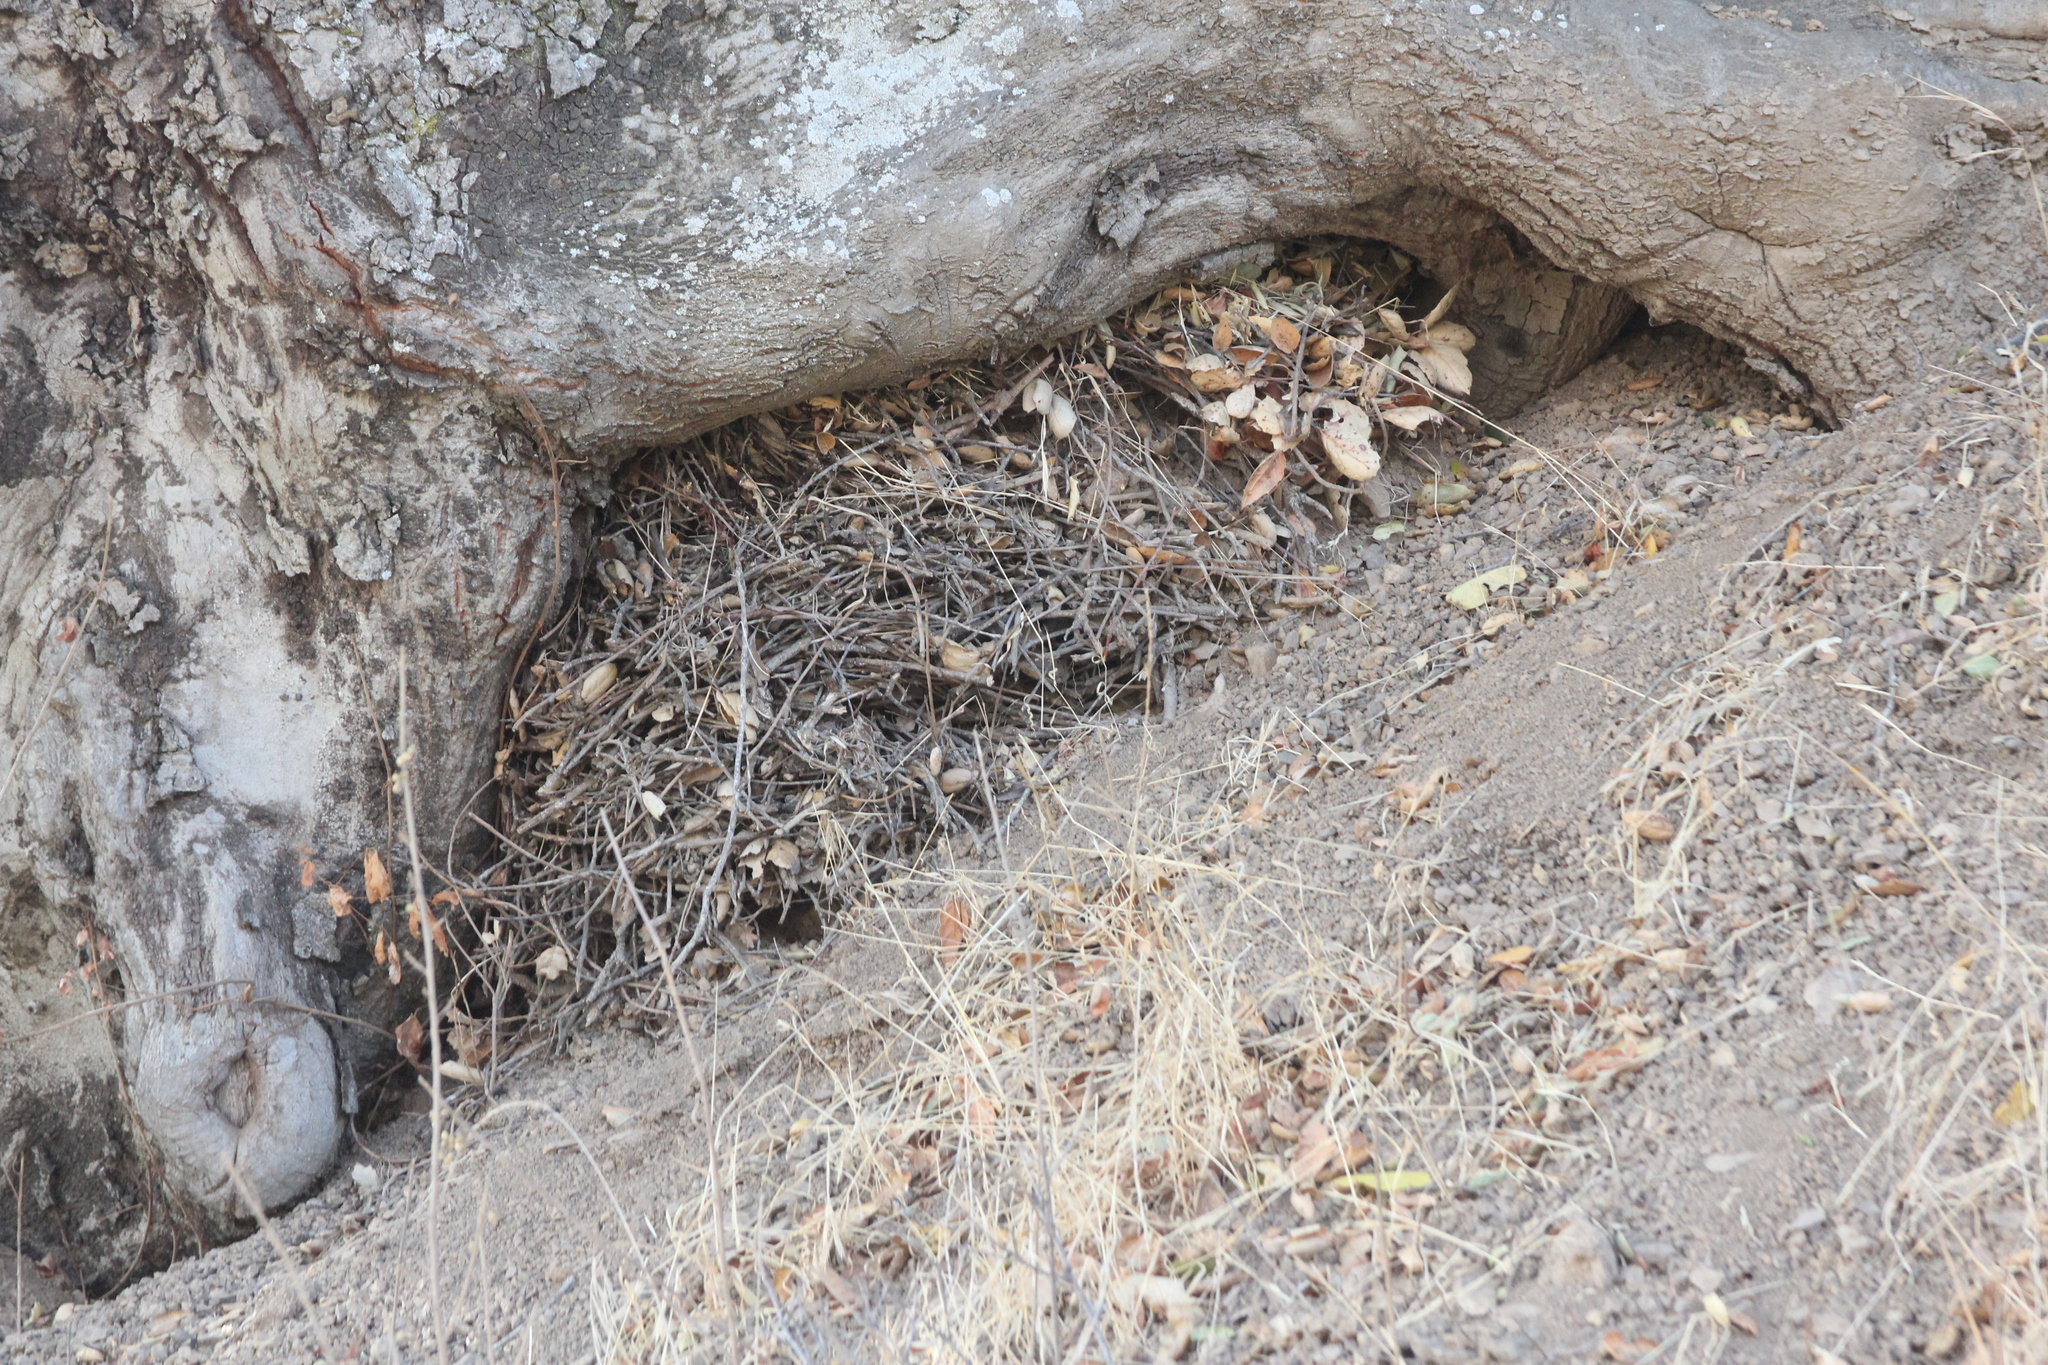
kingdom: Animalia
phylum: Chordata
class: Mammalia
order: Rodentia
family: Cricetidae
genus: Neotoma
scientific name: Neotoma fuscipes
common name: Dusky-footed woodrat
